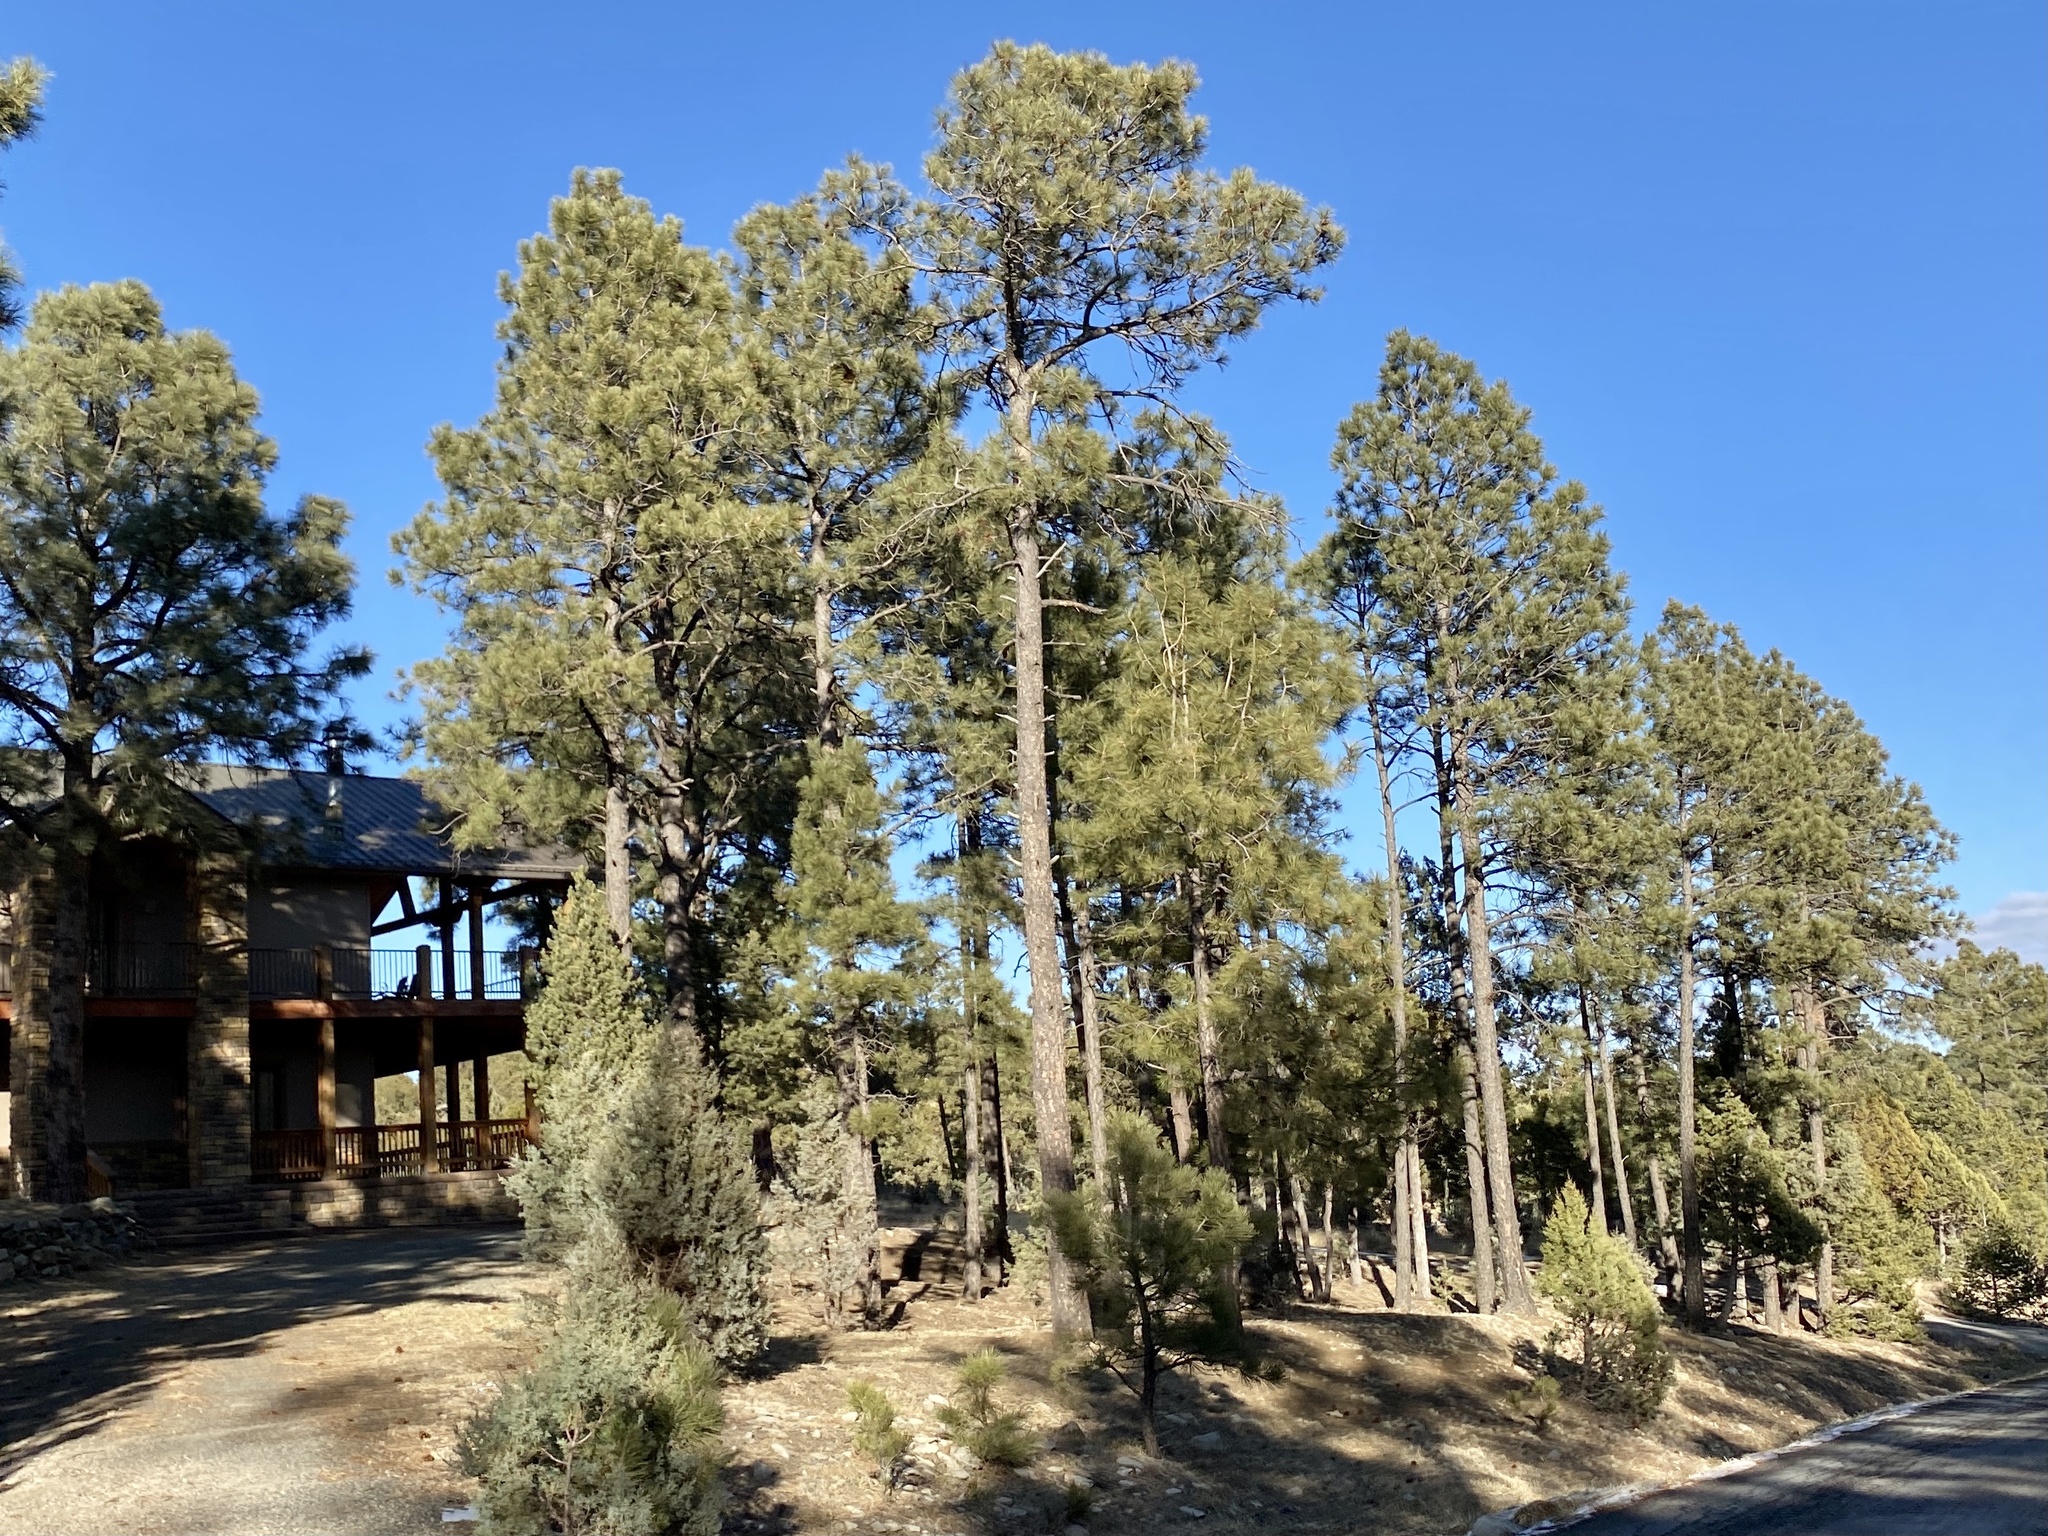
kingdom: Plantae
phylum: Tracheophyta
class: Pinopsida
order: Pinales
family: Pinaceae
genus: Pinus
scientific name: Pinus ponderosa
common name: Western yellow-pine
